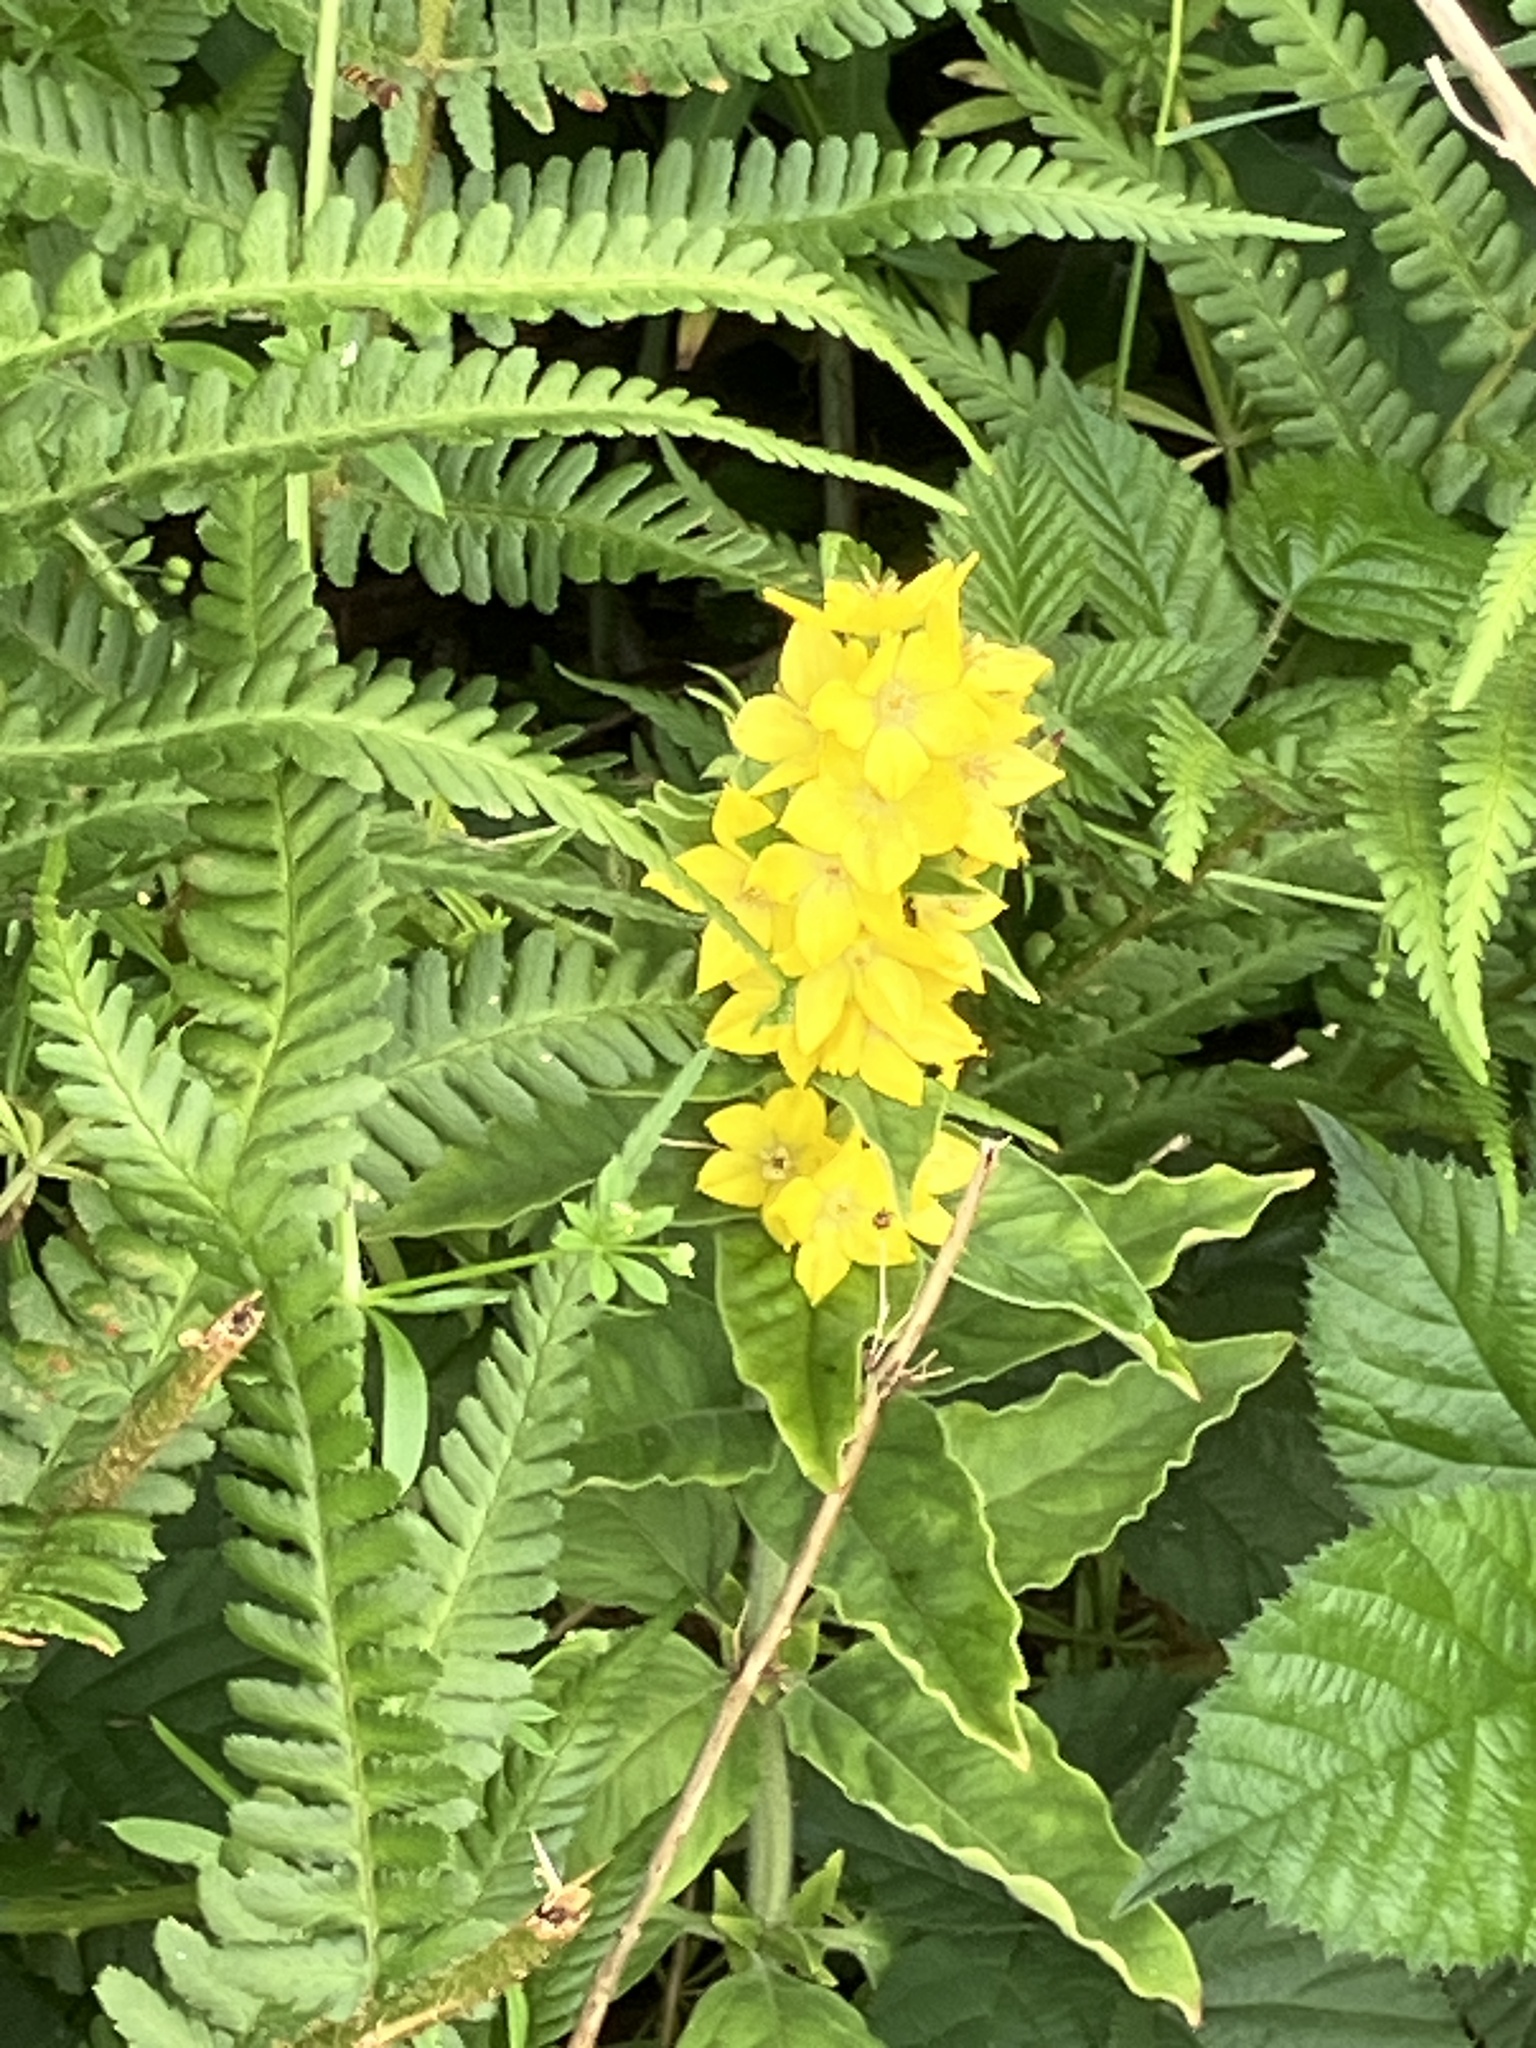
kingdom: Plantae
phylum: Tracheophyta
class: Magnoliopsida
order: Ericales
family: Primulaceae
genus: Lysimachia
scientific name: Lysimachia punctata
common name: Dotted loosestrife
